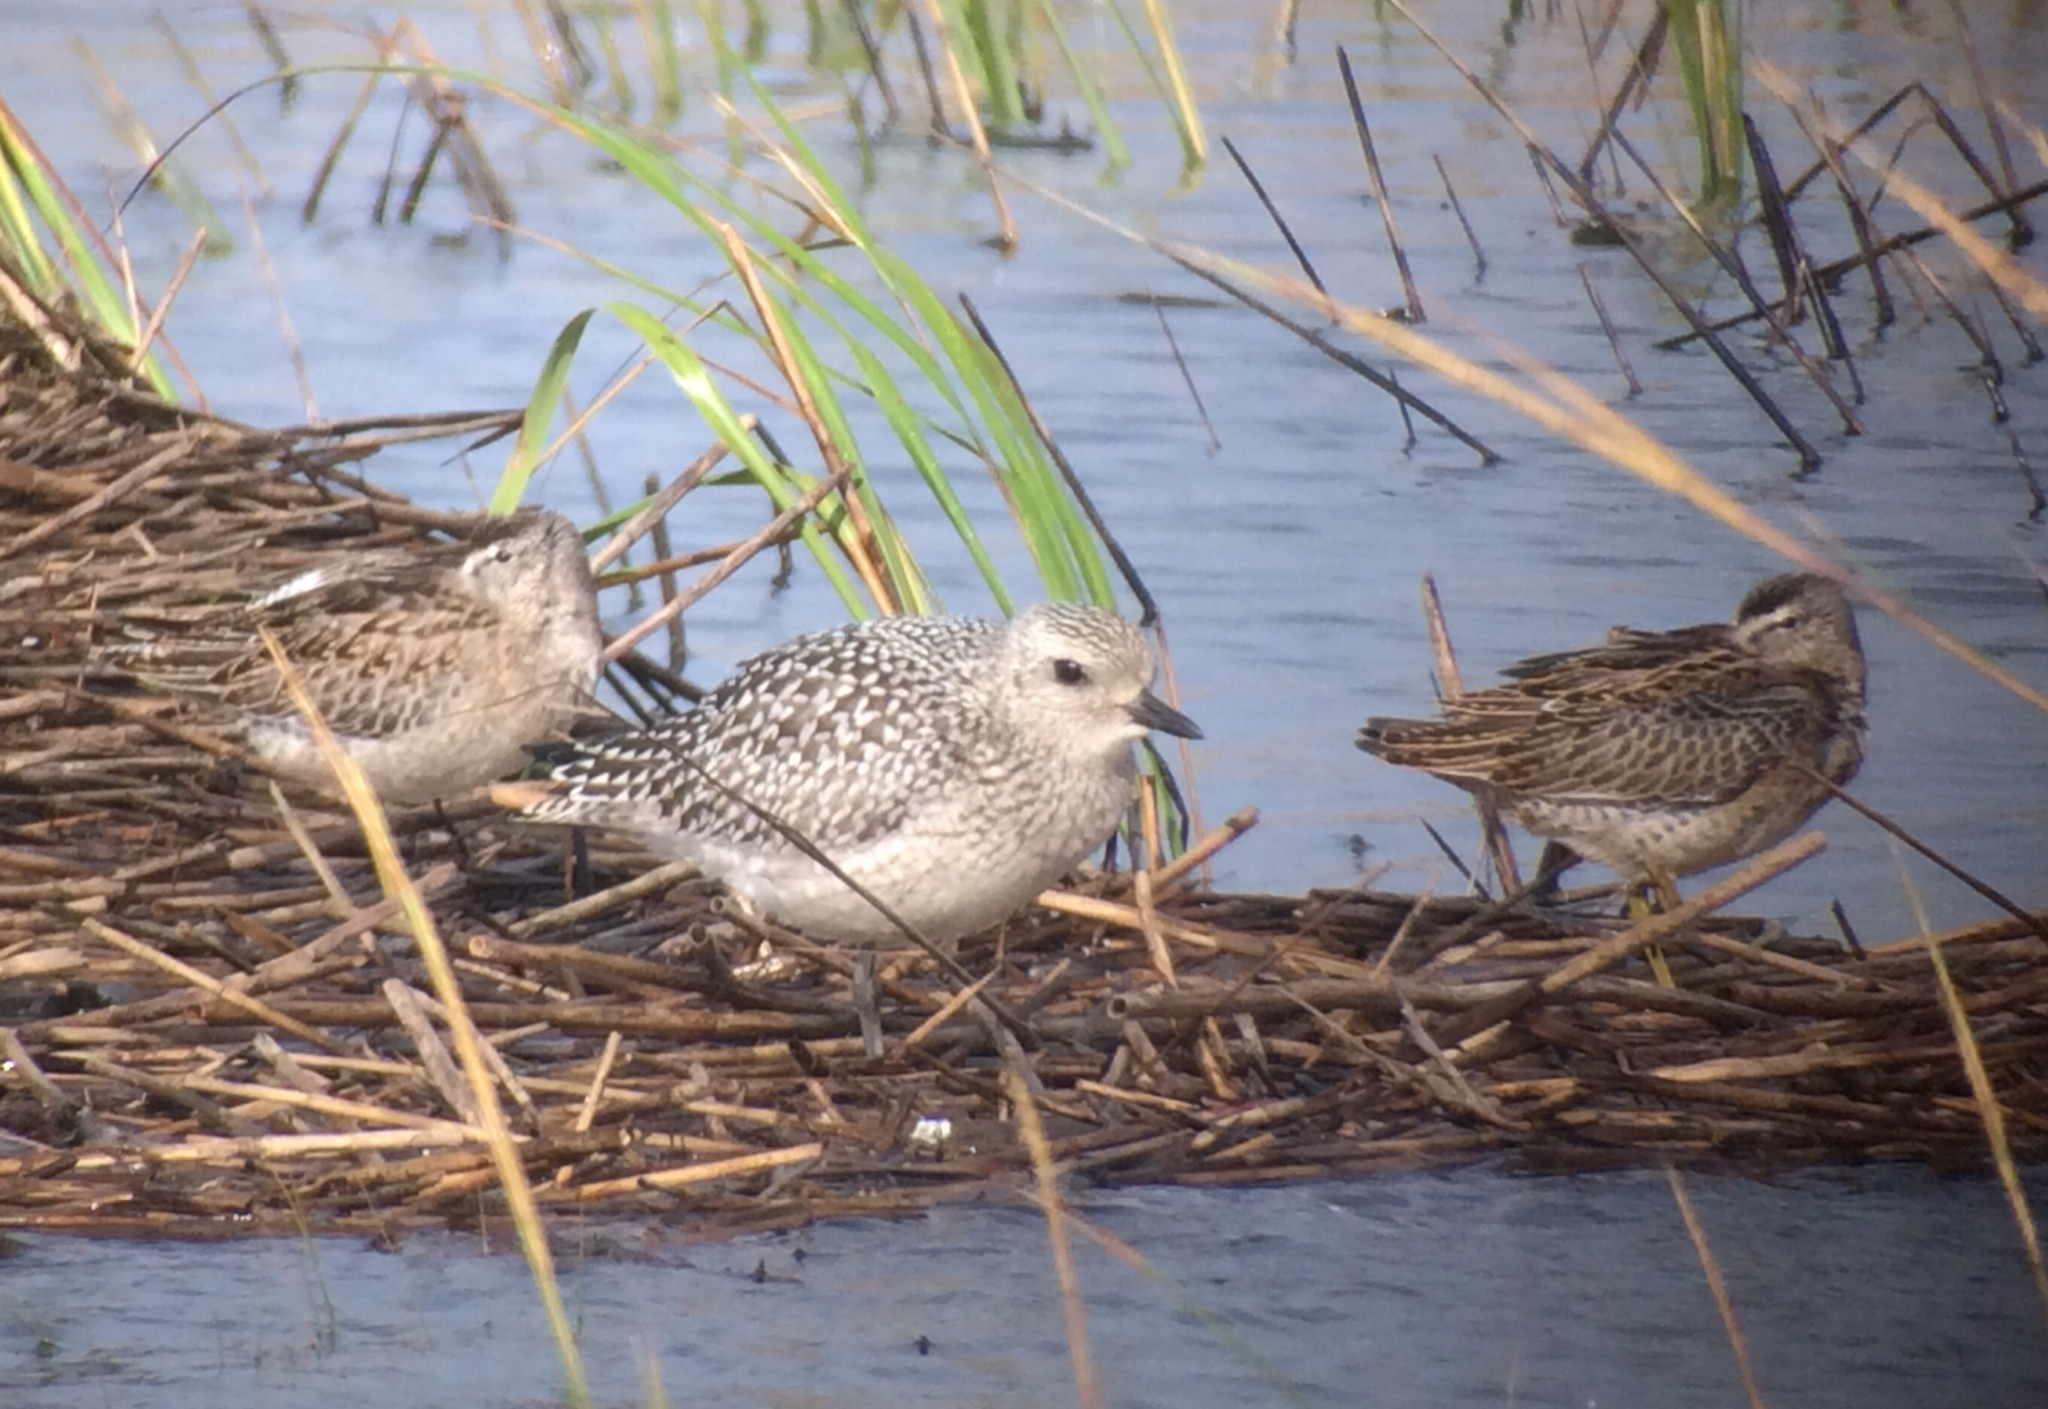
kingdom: Animalia
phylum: Chordata
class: Aves
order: Charadriiformes
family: Charadriidae
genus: Pluvialis
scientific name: Pluvialis squatarola
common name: Grey plover
